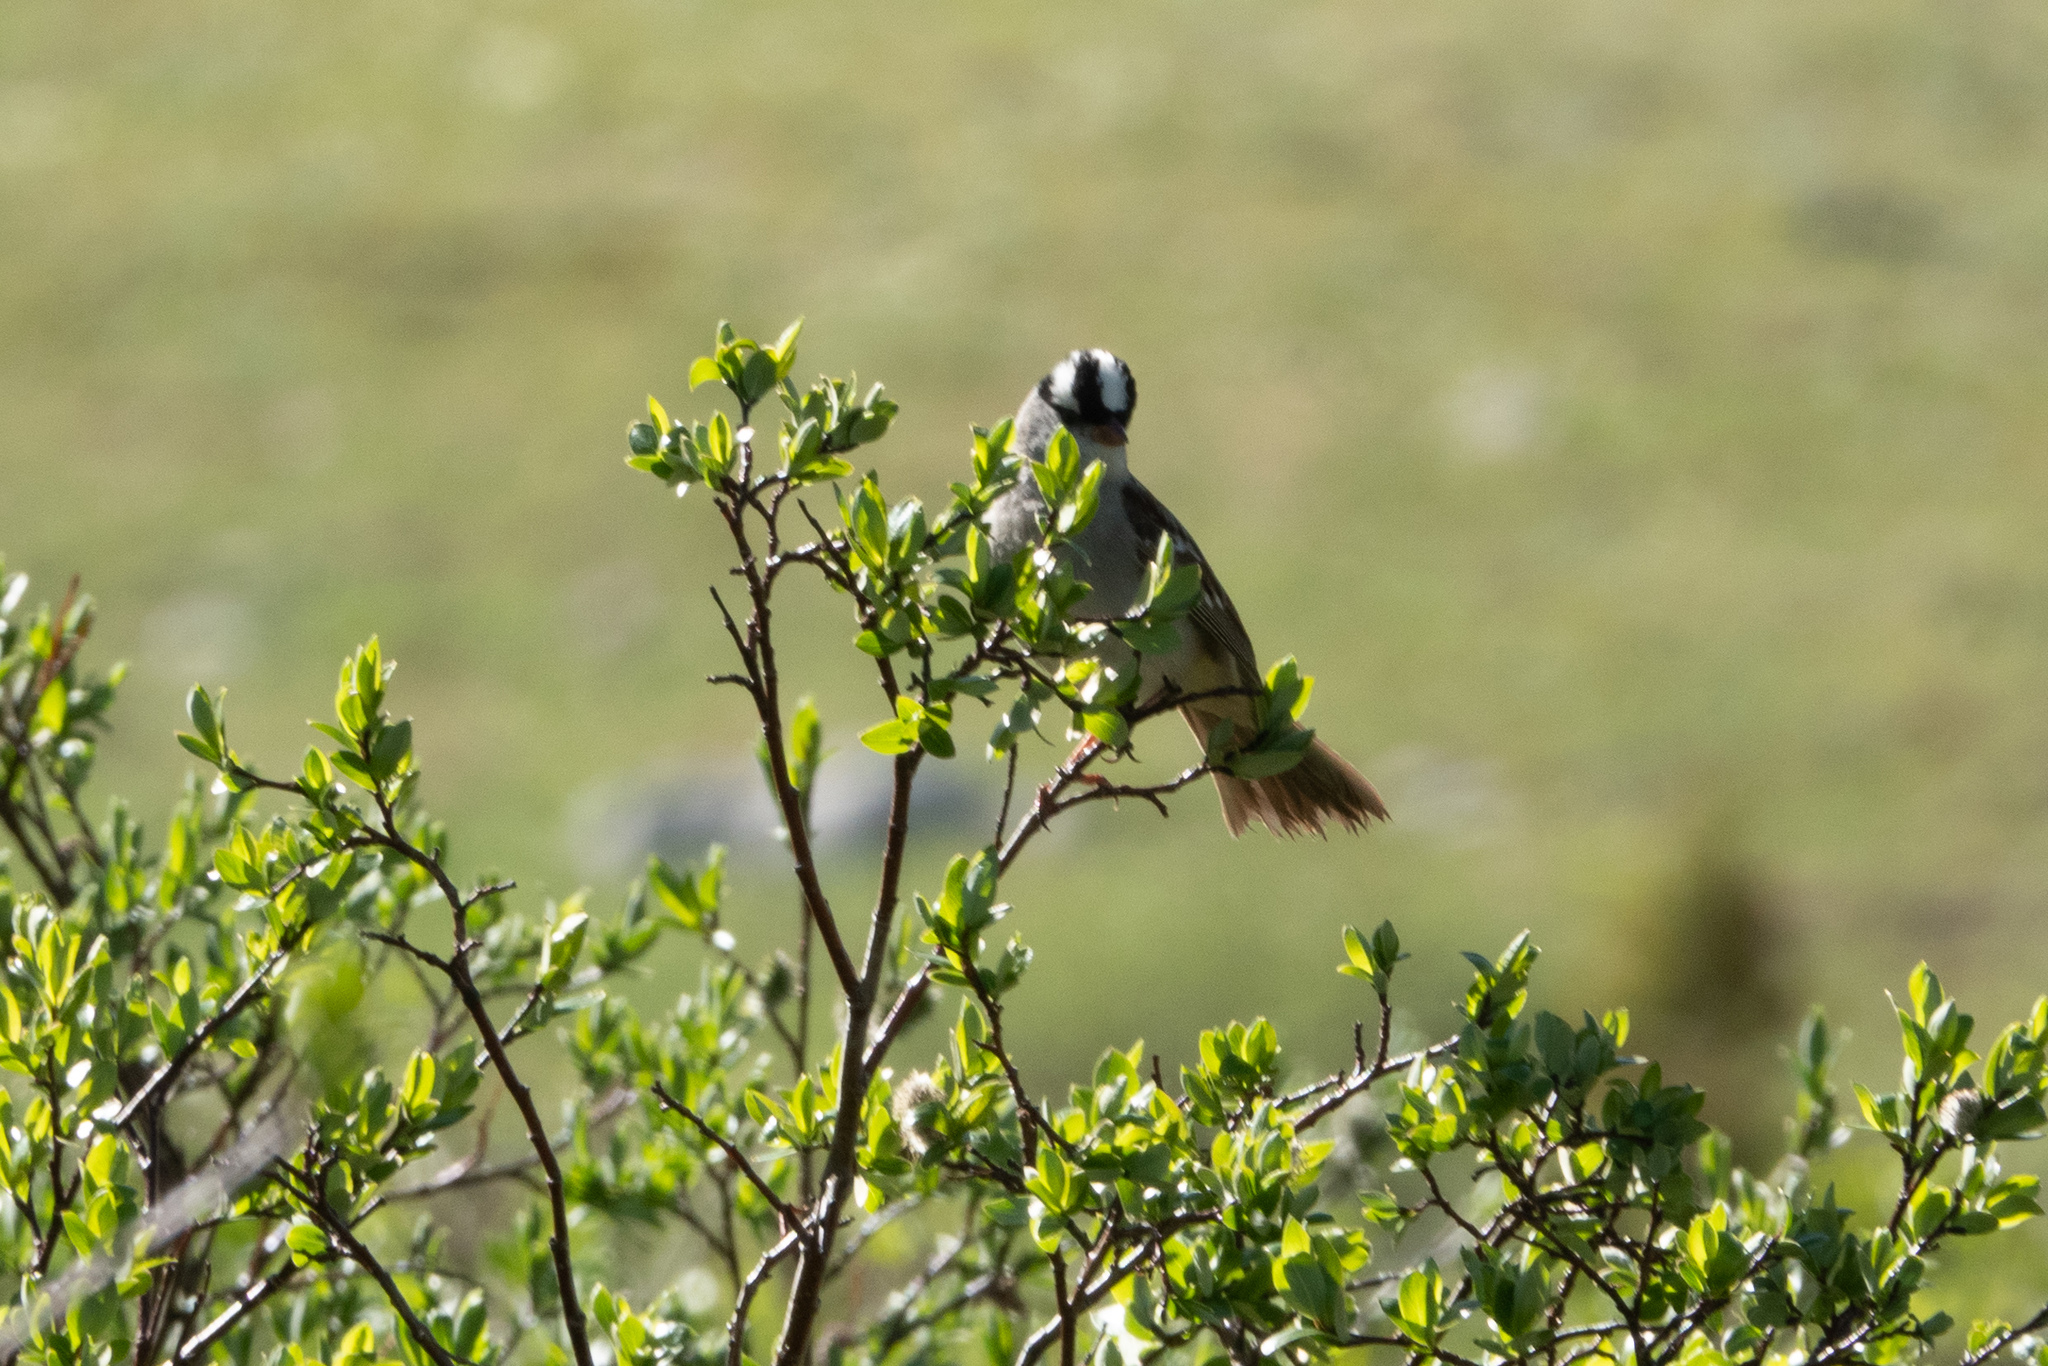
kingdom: Animalia
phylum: Chordata
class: Aves
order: Passeriformes
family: Passerellidae
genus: Zonotrichia
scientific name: Zonotrichia leucophrys
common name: White-crowned sparrow
